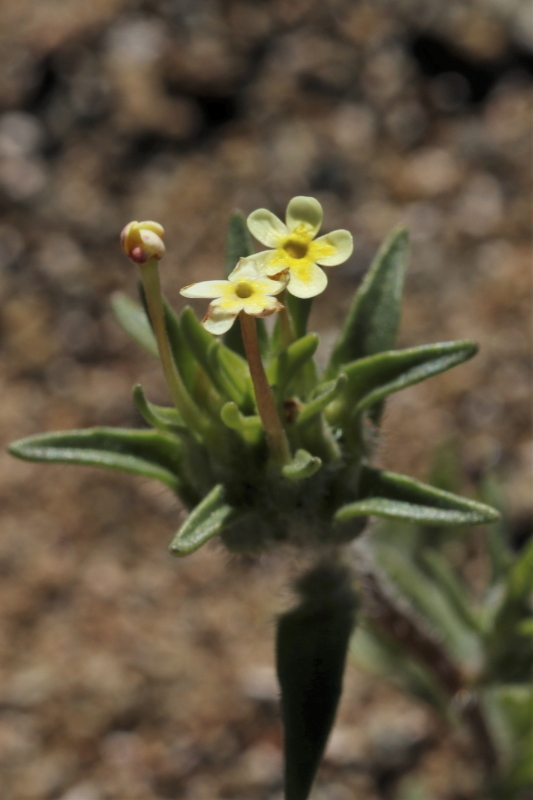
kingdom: Plantae
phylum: Tracheophyta
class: Magnoliopsida
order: Lamiales
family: Scrophulariaceae
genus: Zaluzianskya
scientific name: Zaluzianskya benthamiana
